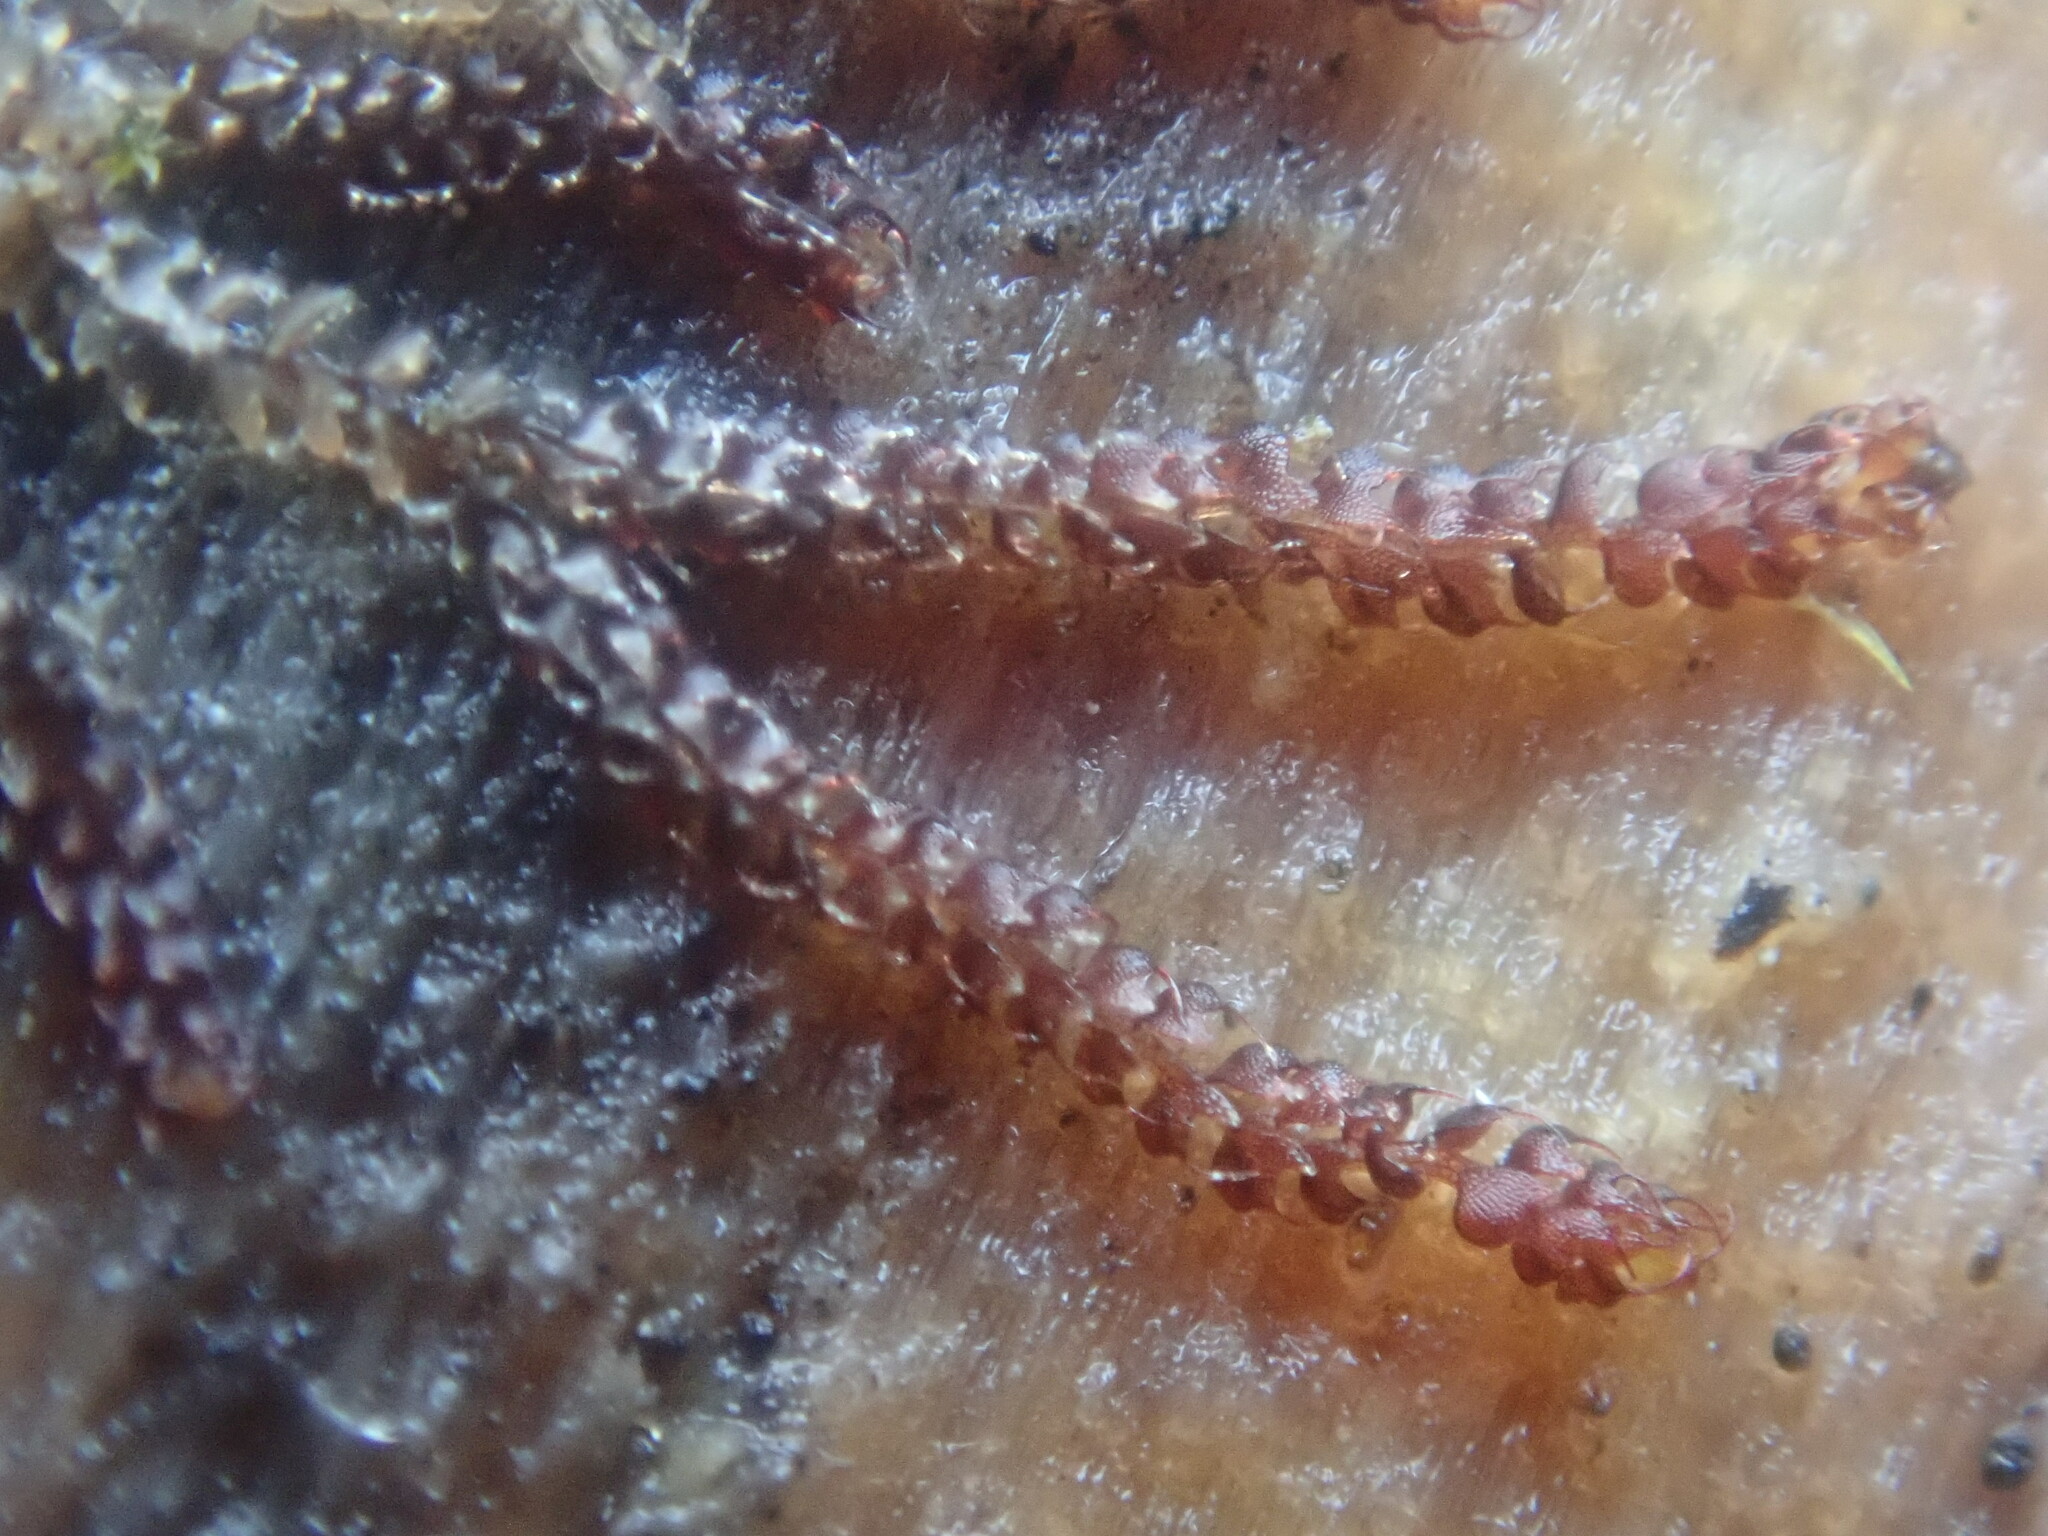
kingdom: Plantae
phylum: Marchantiophyta
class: Jungermanniopsida
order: Jungermanniales
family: Cephaloziaceae
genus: Nowellia
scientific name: Nowellia curvifolia
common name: Wood rustwort
